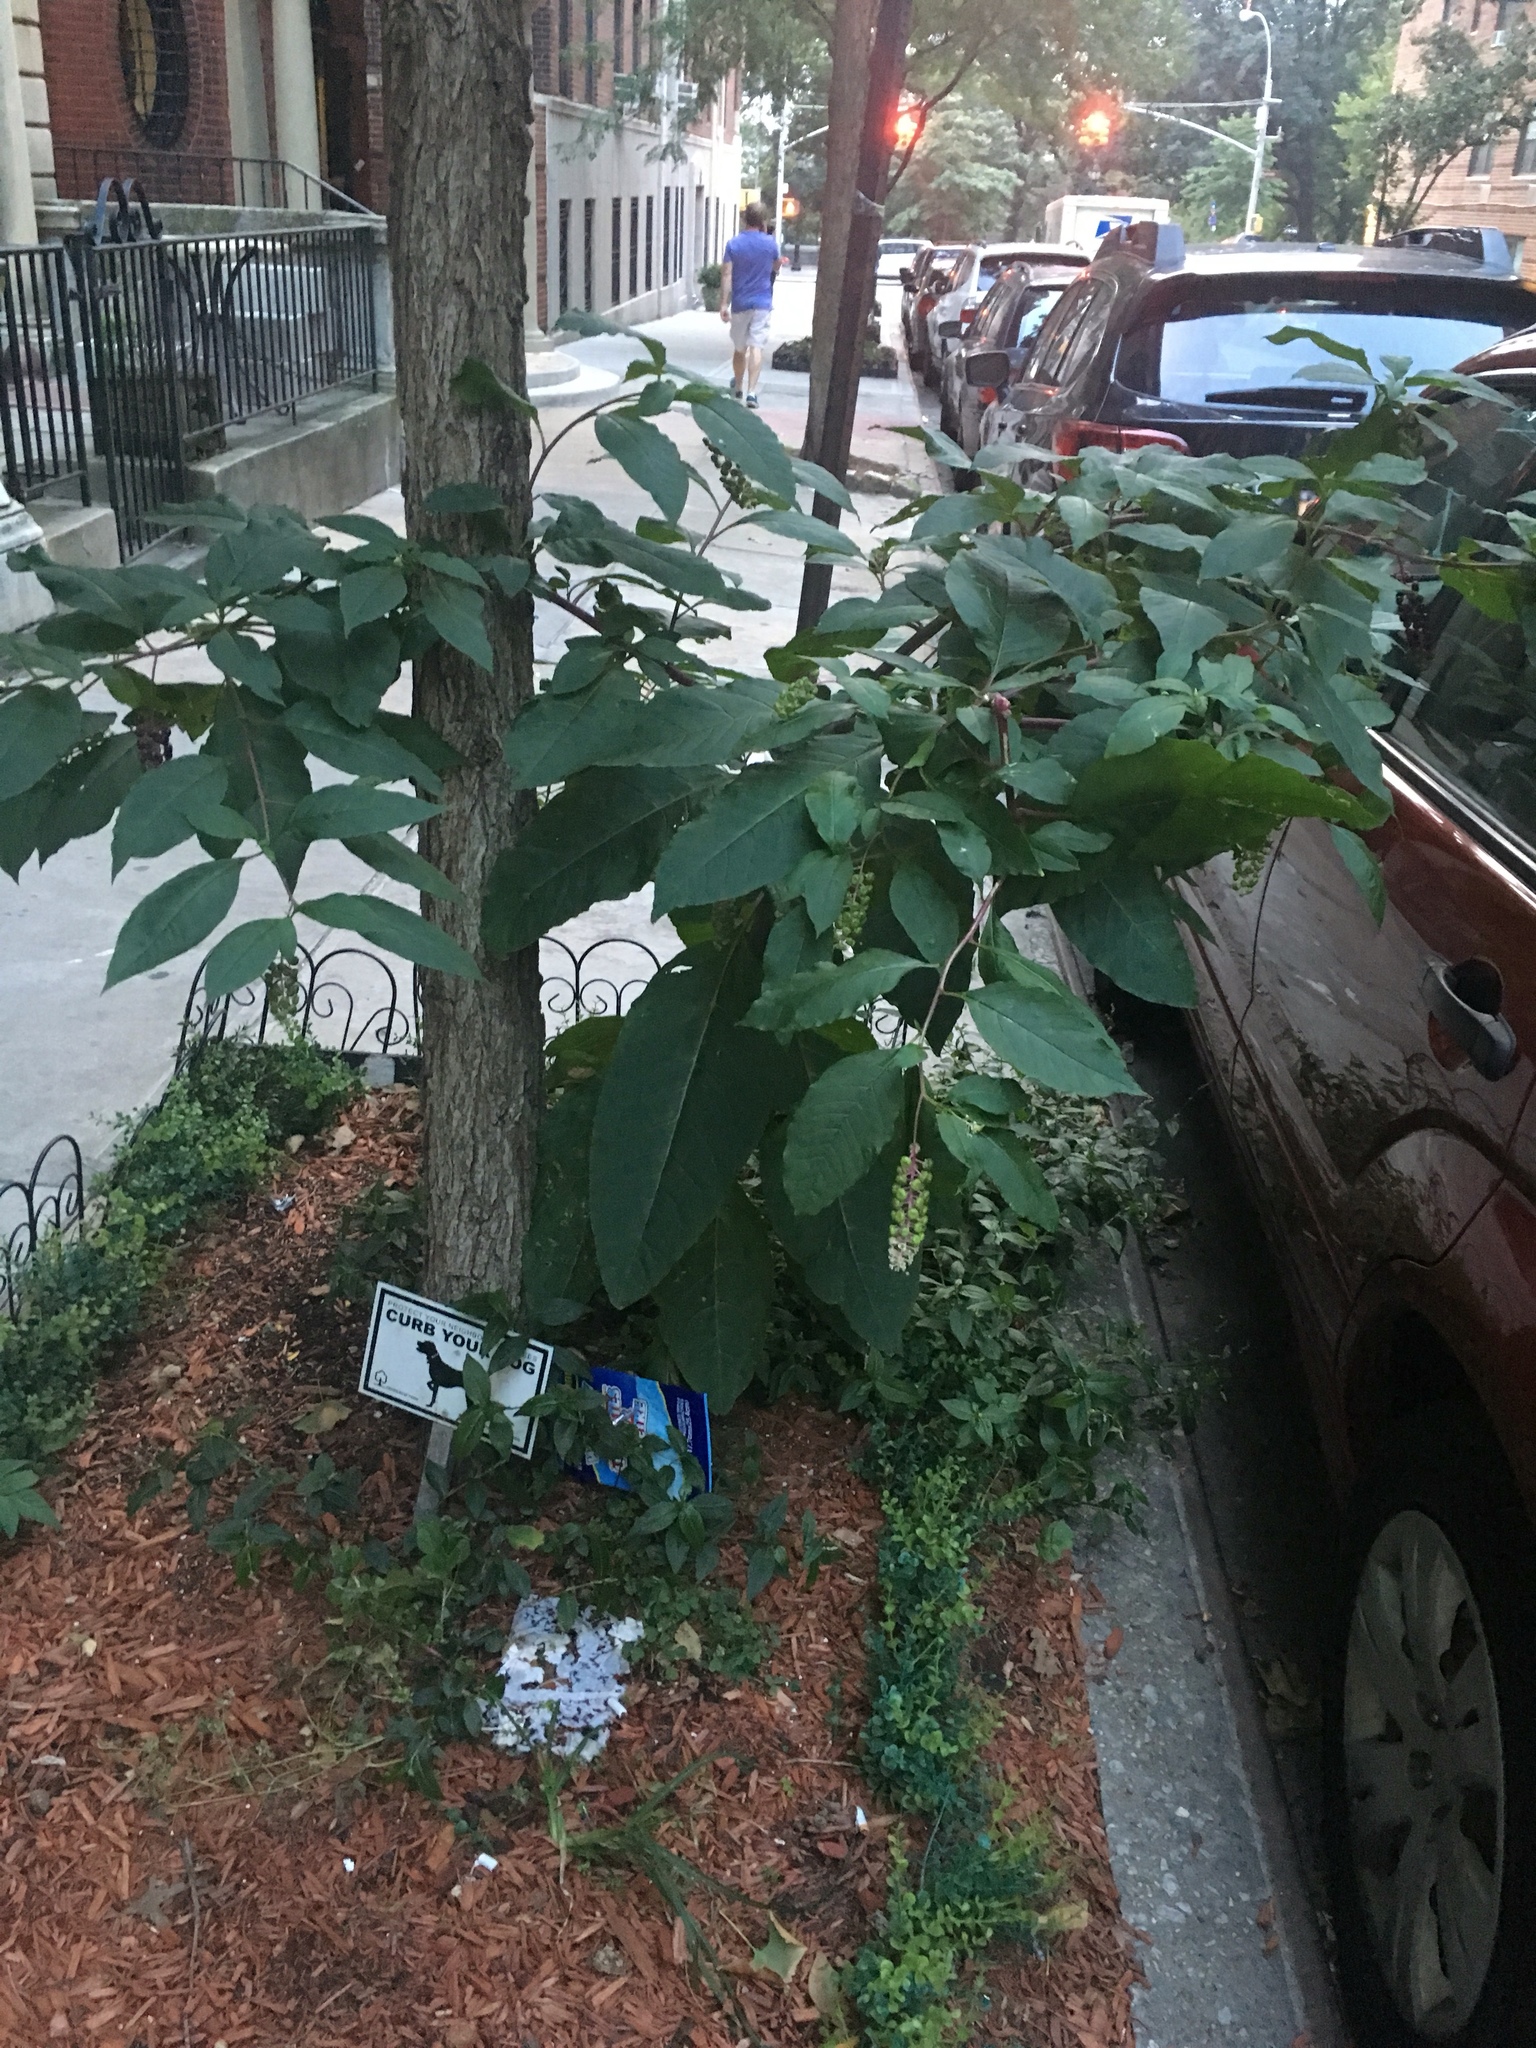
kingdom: Plantae
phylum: Tracheophyta
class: Magnoliopsida
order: Caryophyllales
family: Phytolaccaceae
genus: Phytolacca
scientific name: Phytolacca americana
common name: American pokeweed
